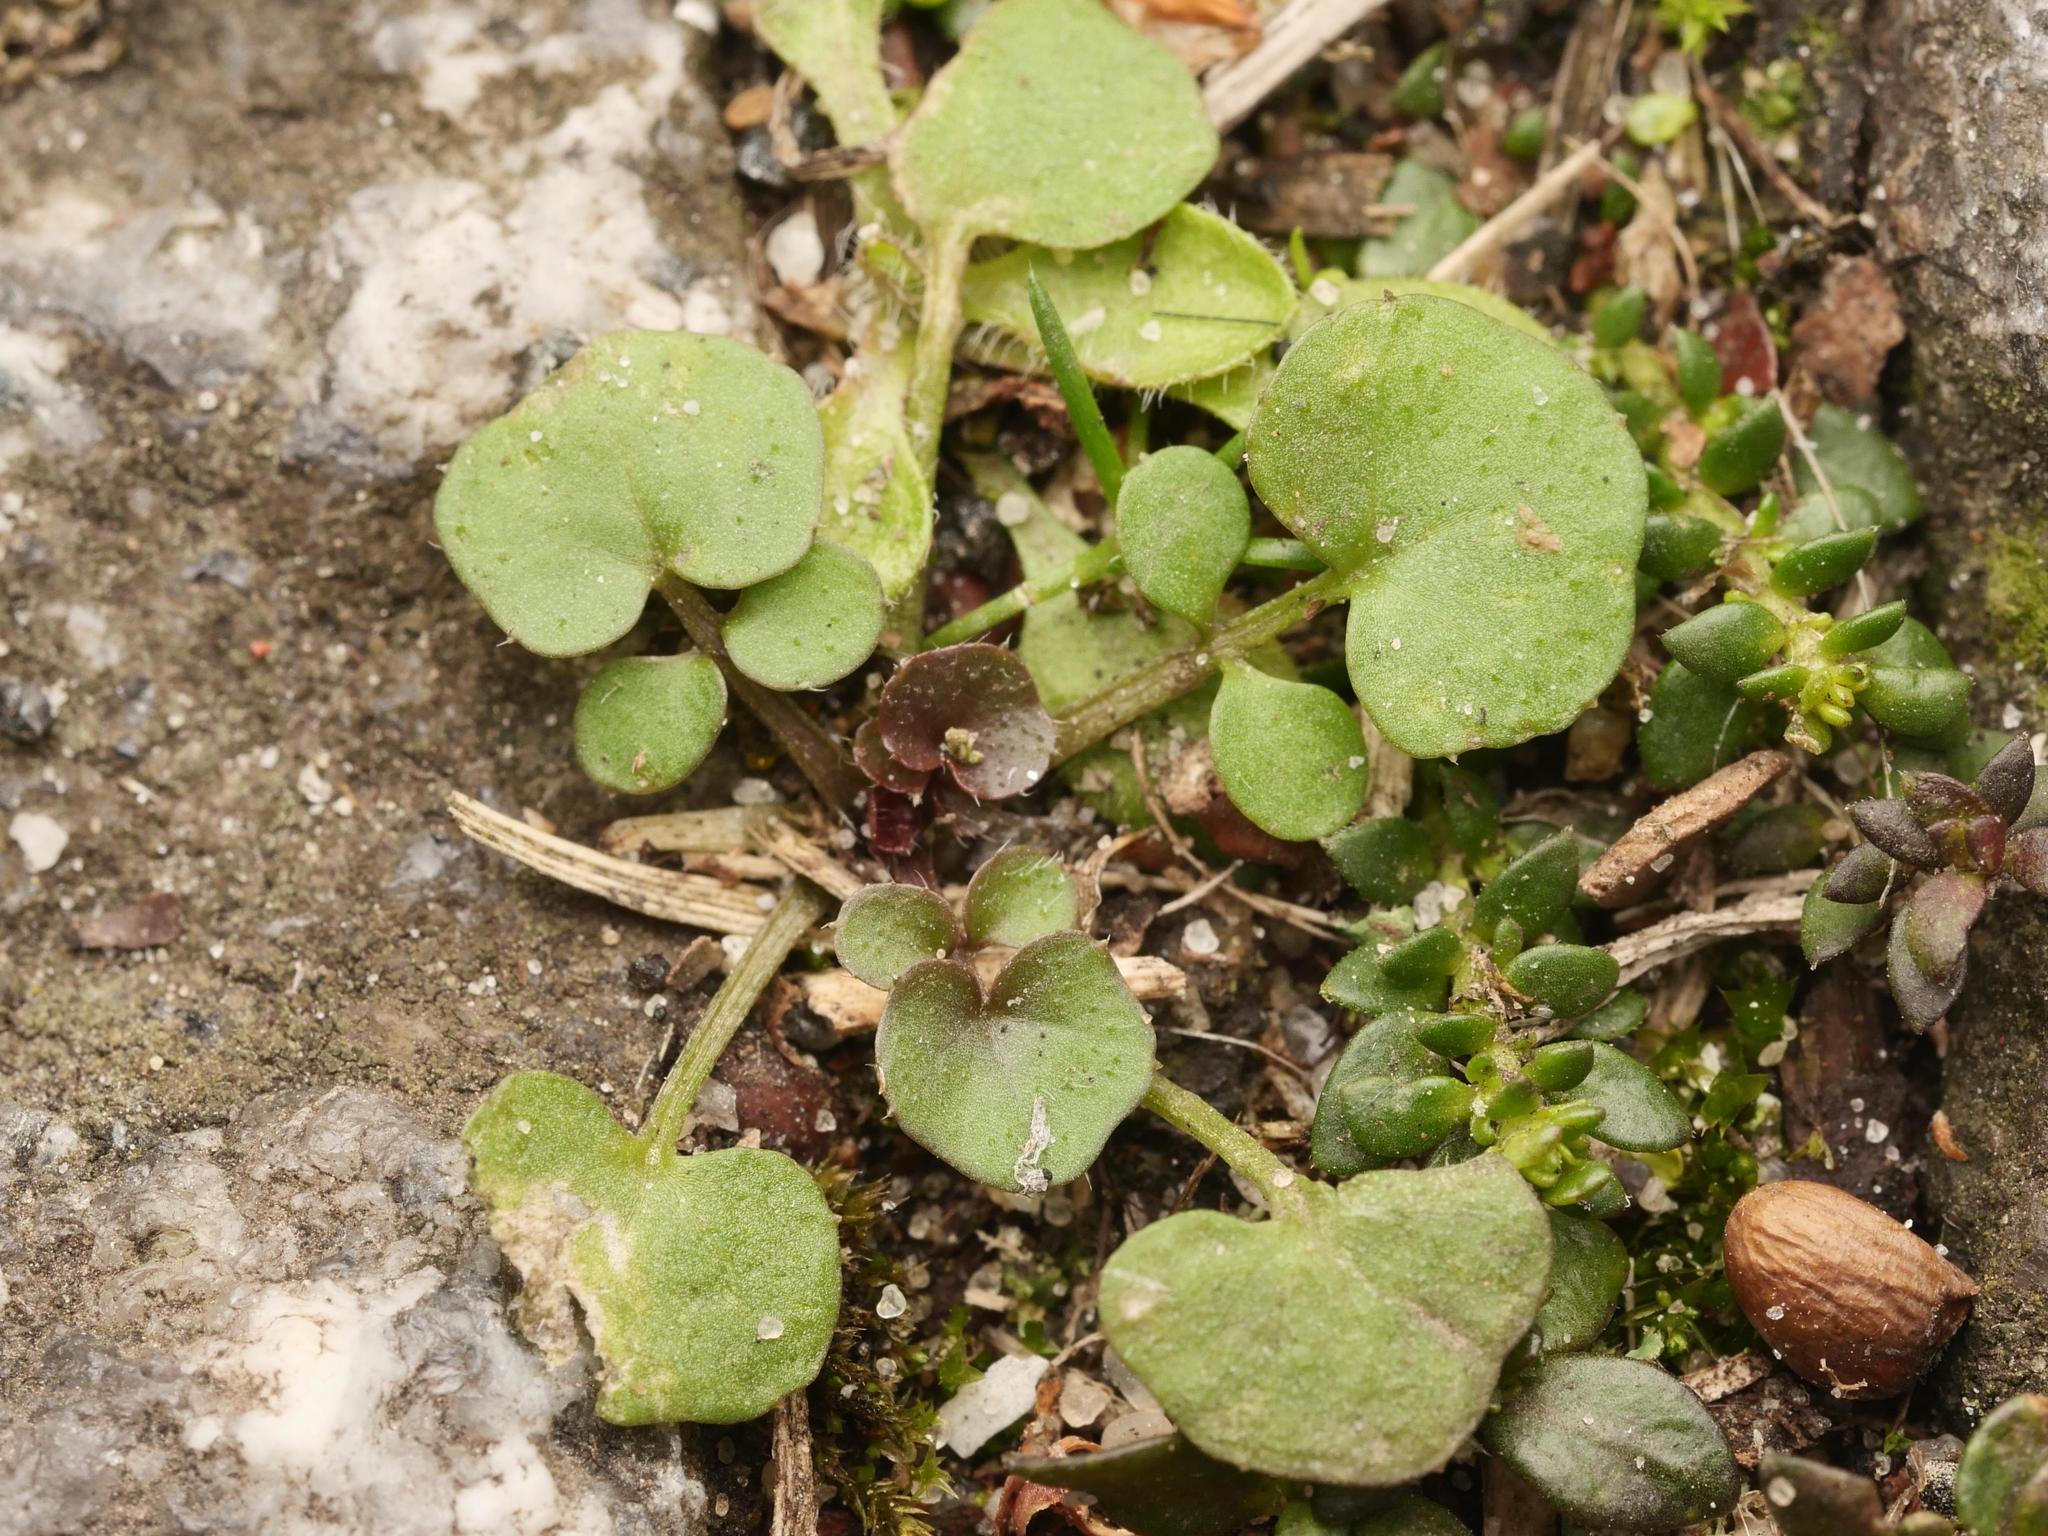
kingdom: Plantae
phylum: Tracheophyta
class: Magnoliopsida
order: Brassicales
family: Brassicaceae
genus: Cardamine
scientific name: Cardamine hirsuta
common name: Hairy bittercress
